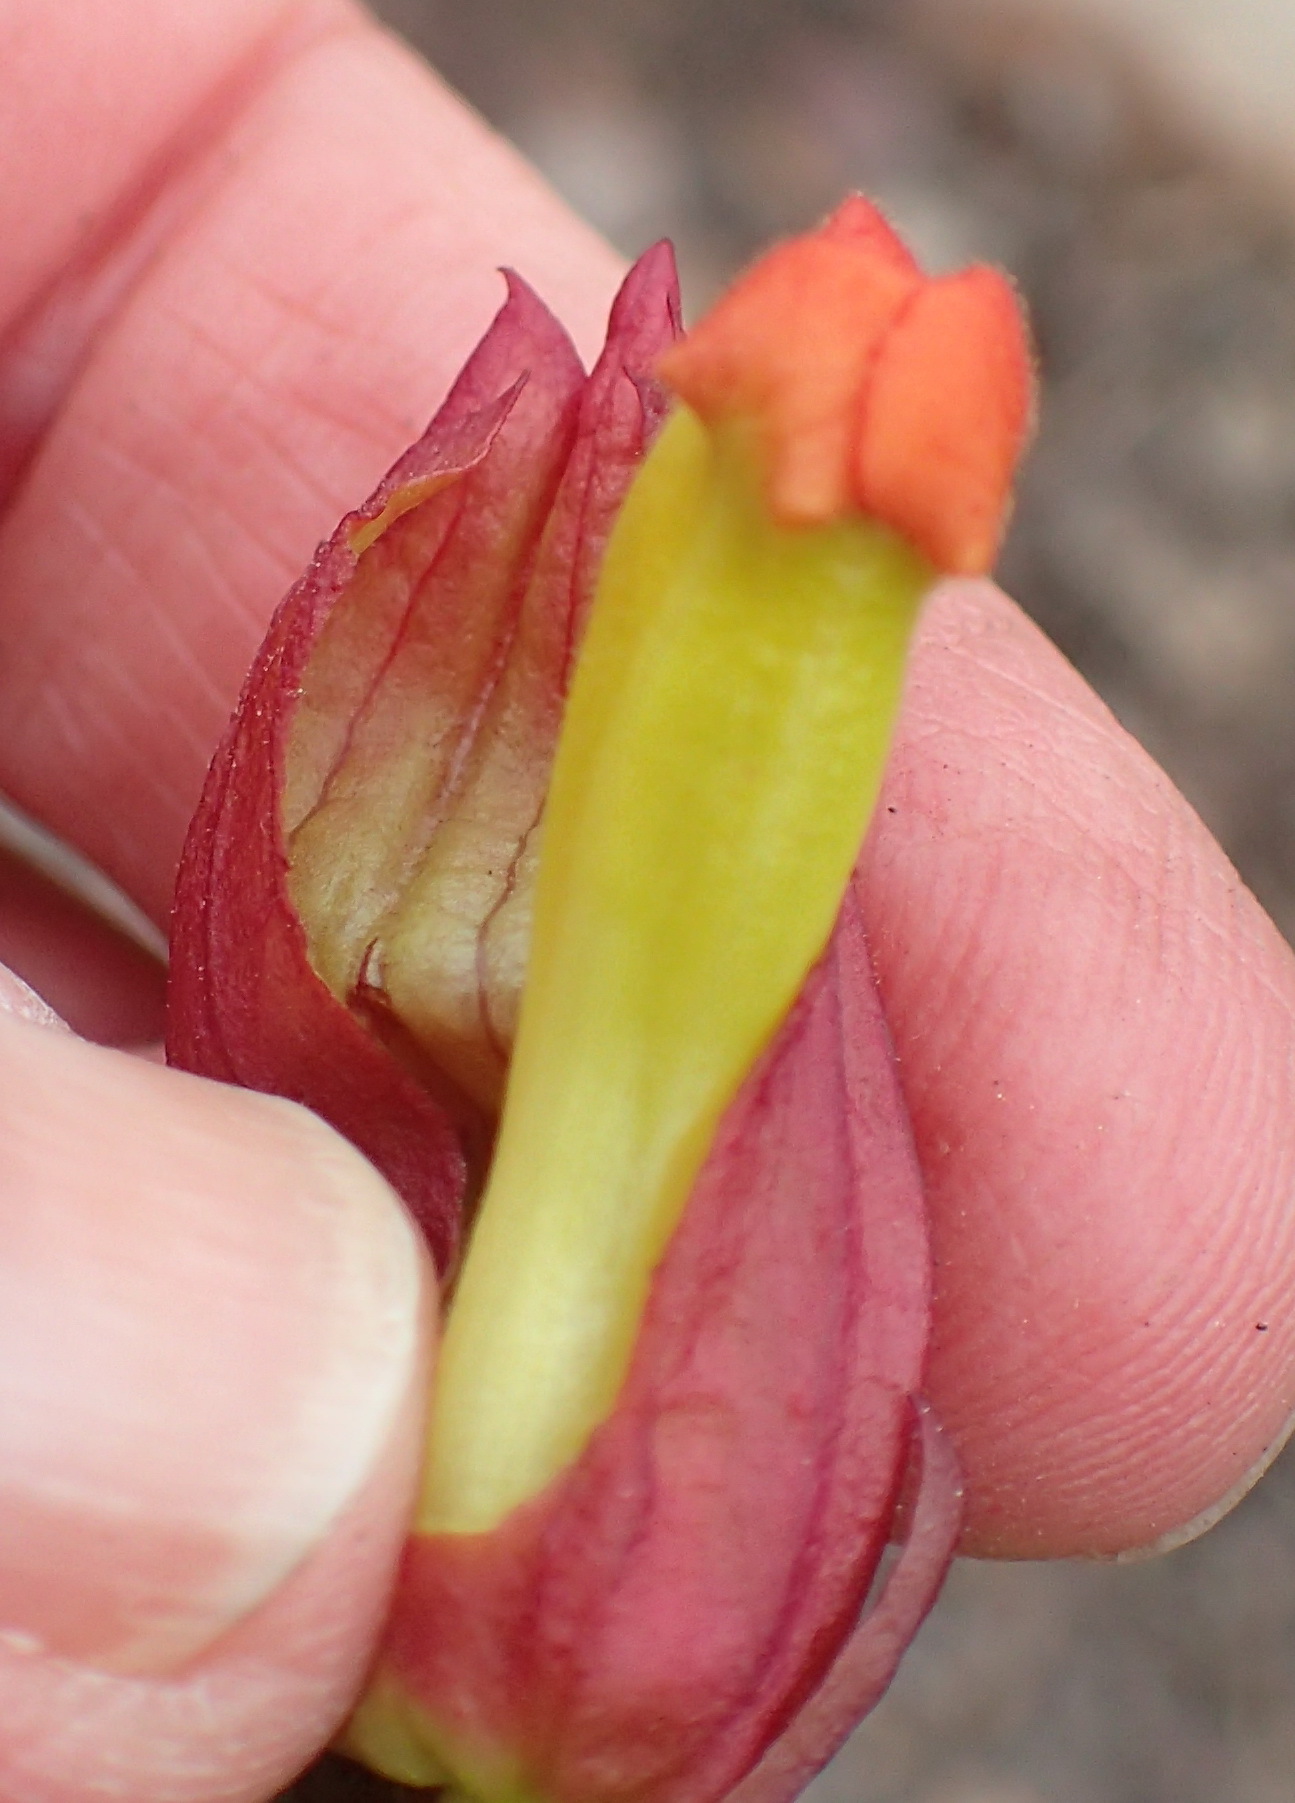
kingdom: Plantae
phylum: Tracheophyta
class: Magnoliopsida
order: Lamiales
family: Orobanchaceae
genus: Harveya
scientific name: Harveya bolusii
